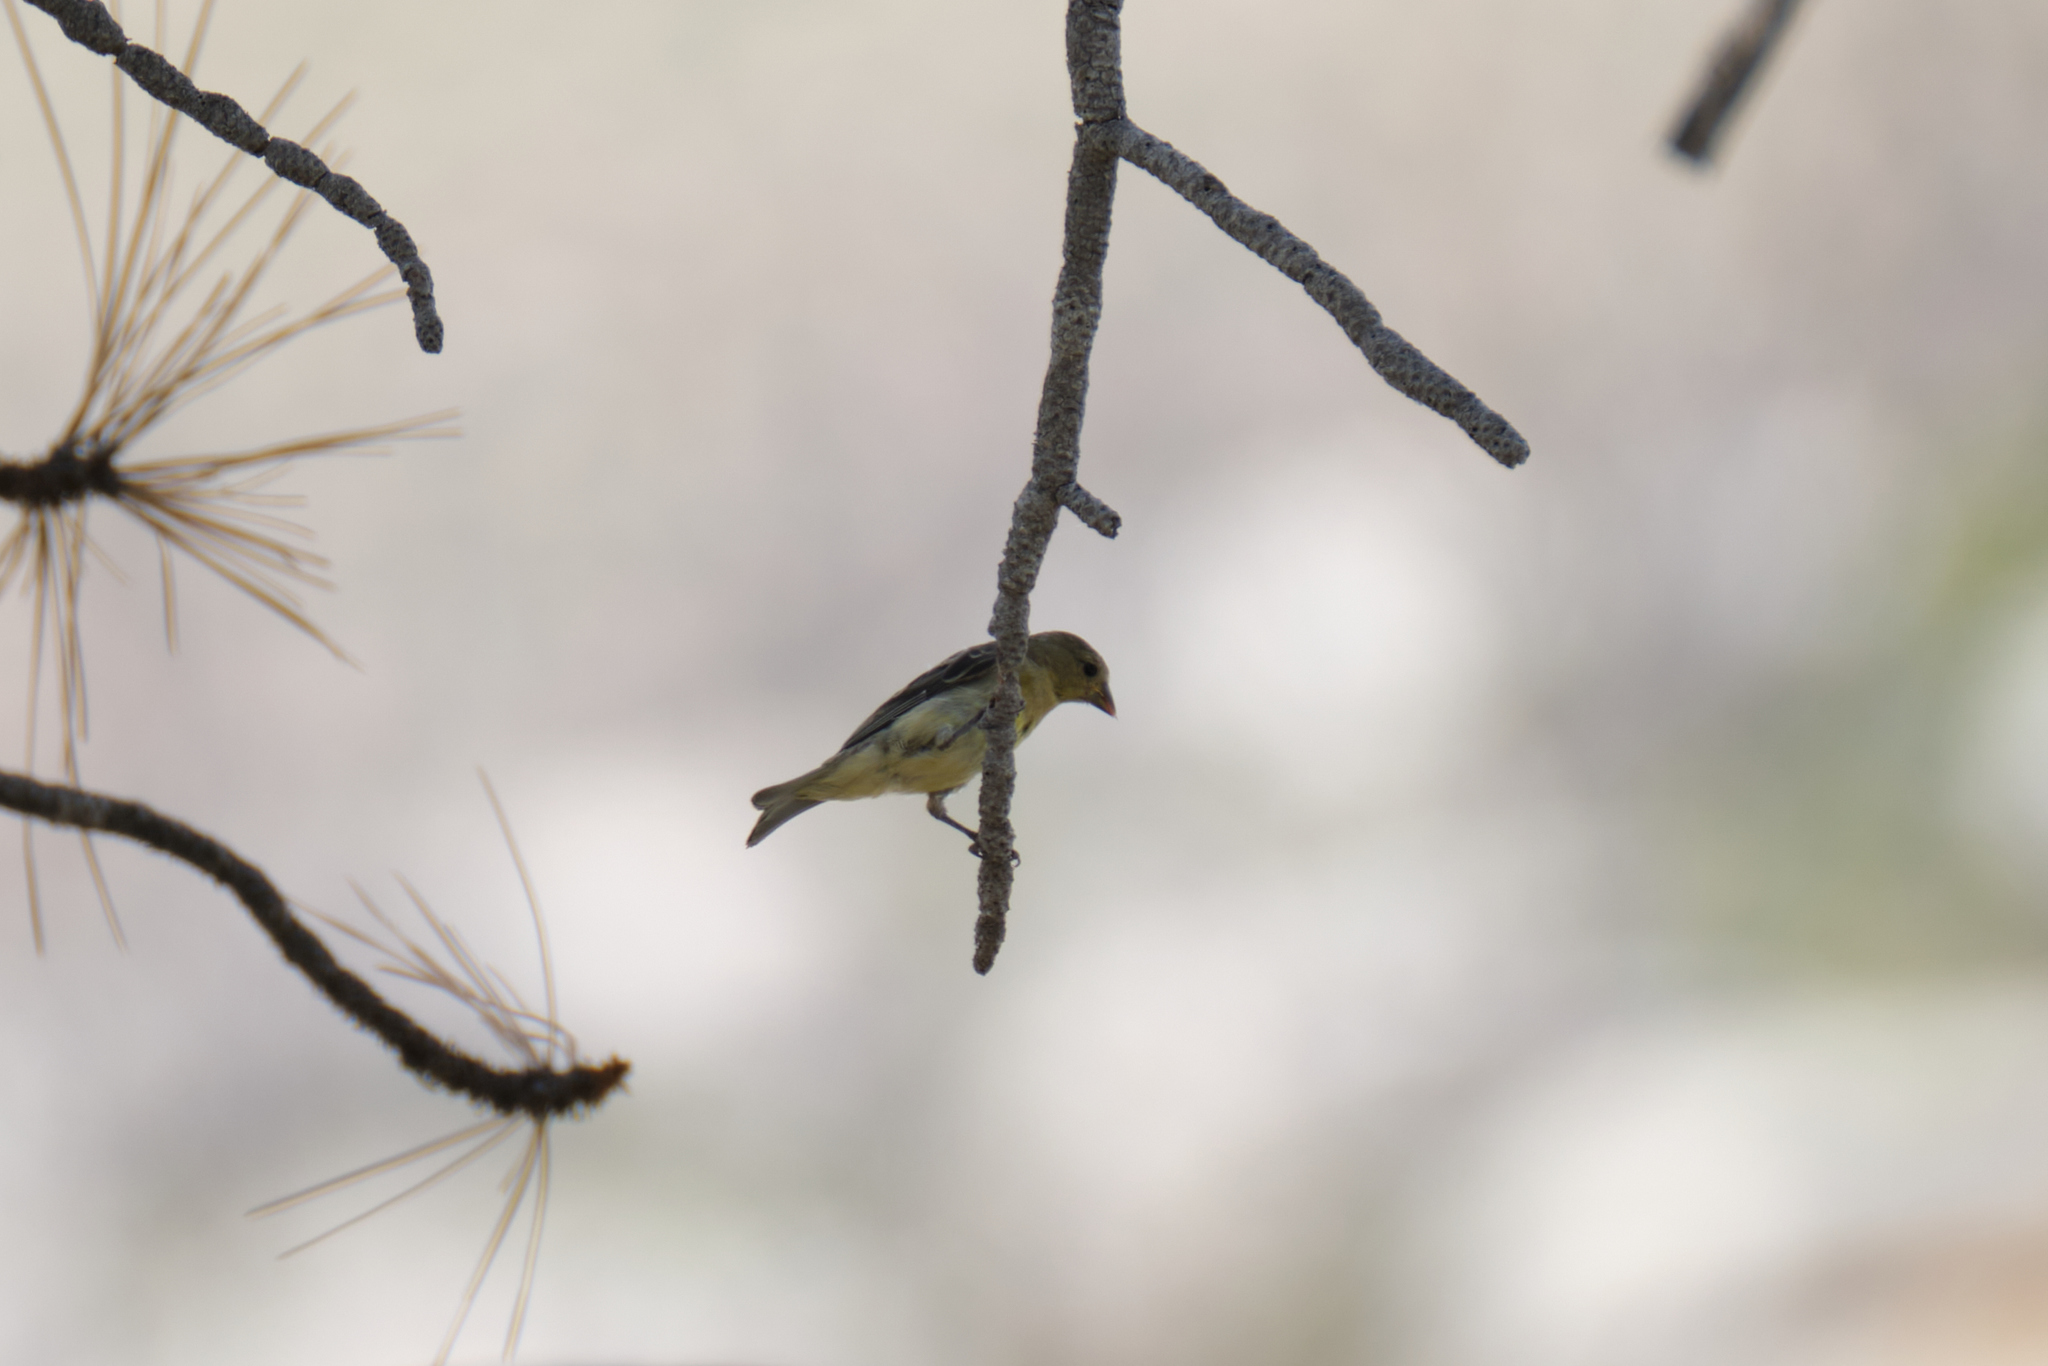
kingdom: Animalia
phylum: Chordata
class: Aves
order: Passeriformes
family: Fringillidae
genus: Spinus
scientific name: Spinus psaltria
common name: Lesser goldfinch
